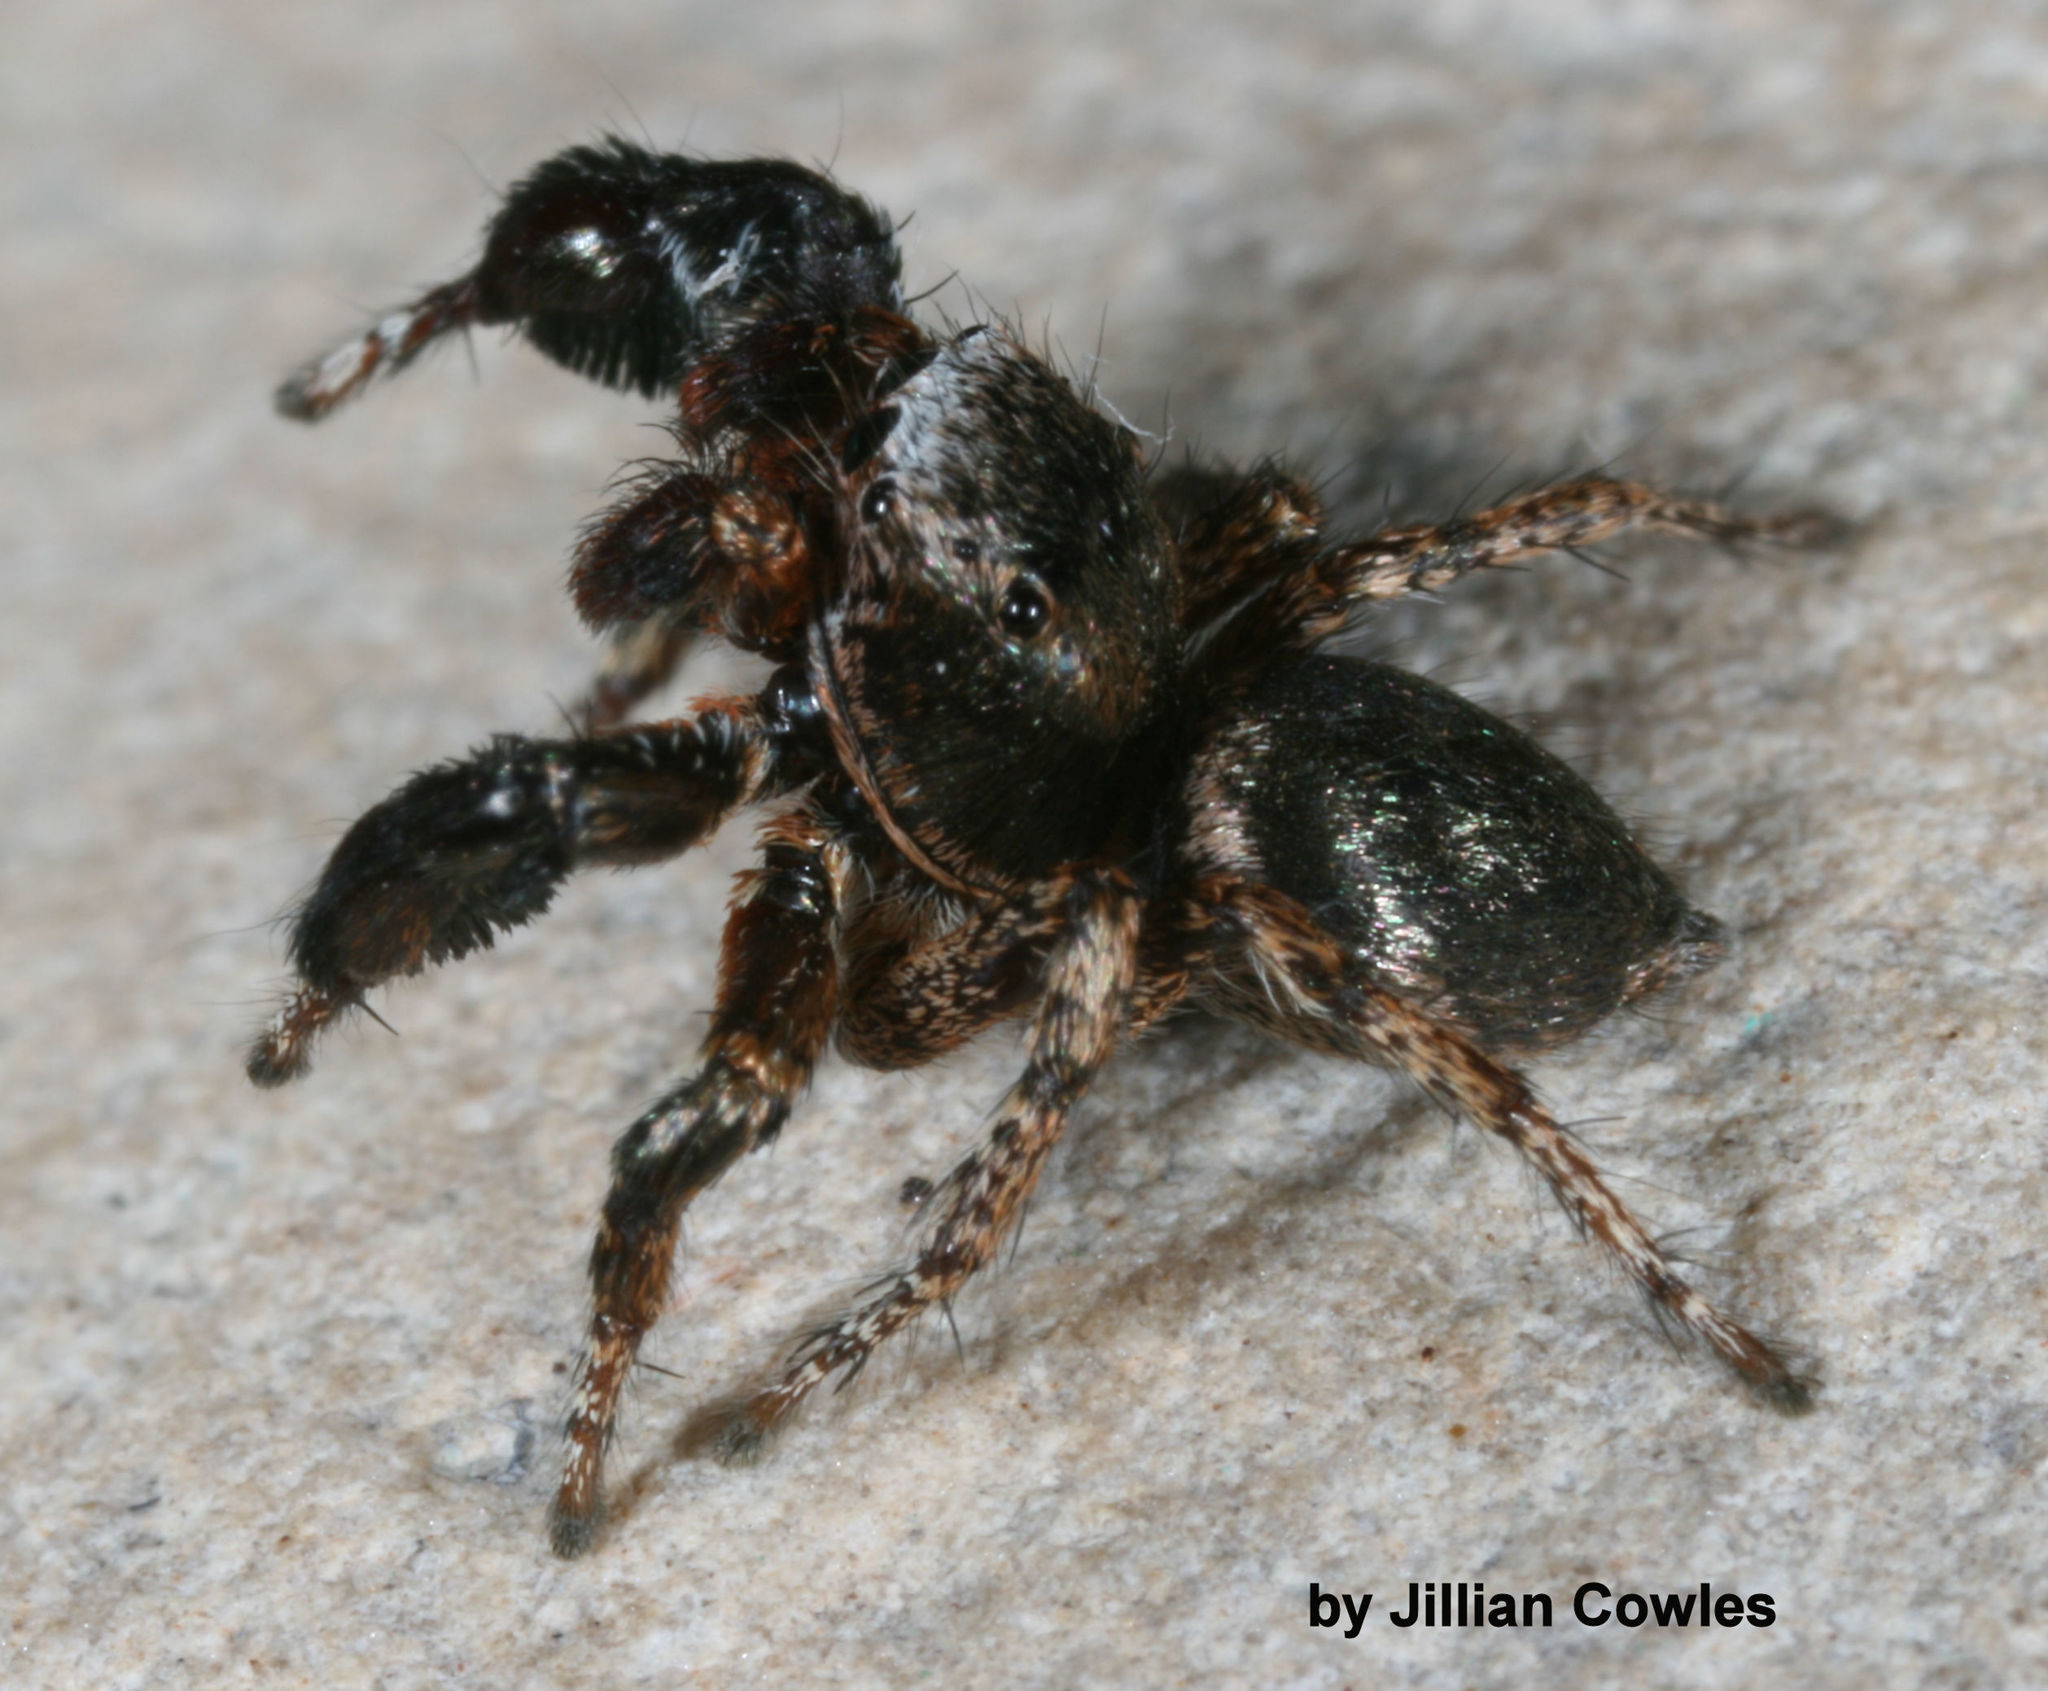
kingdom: Animalia
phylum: Arthropoda
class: Arachnida
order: Araneae
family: Salticidae
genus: Habronattus
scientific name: Habronattus oregonensis
